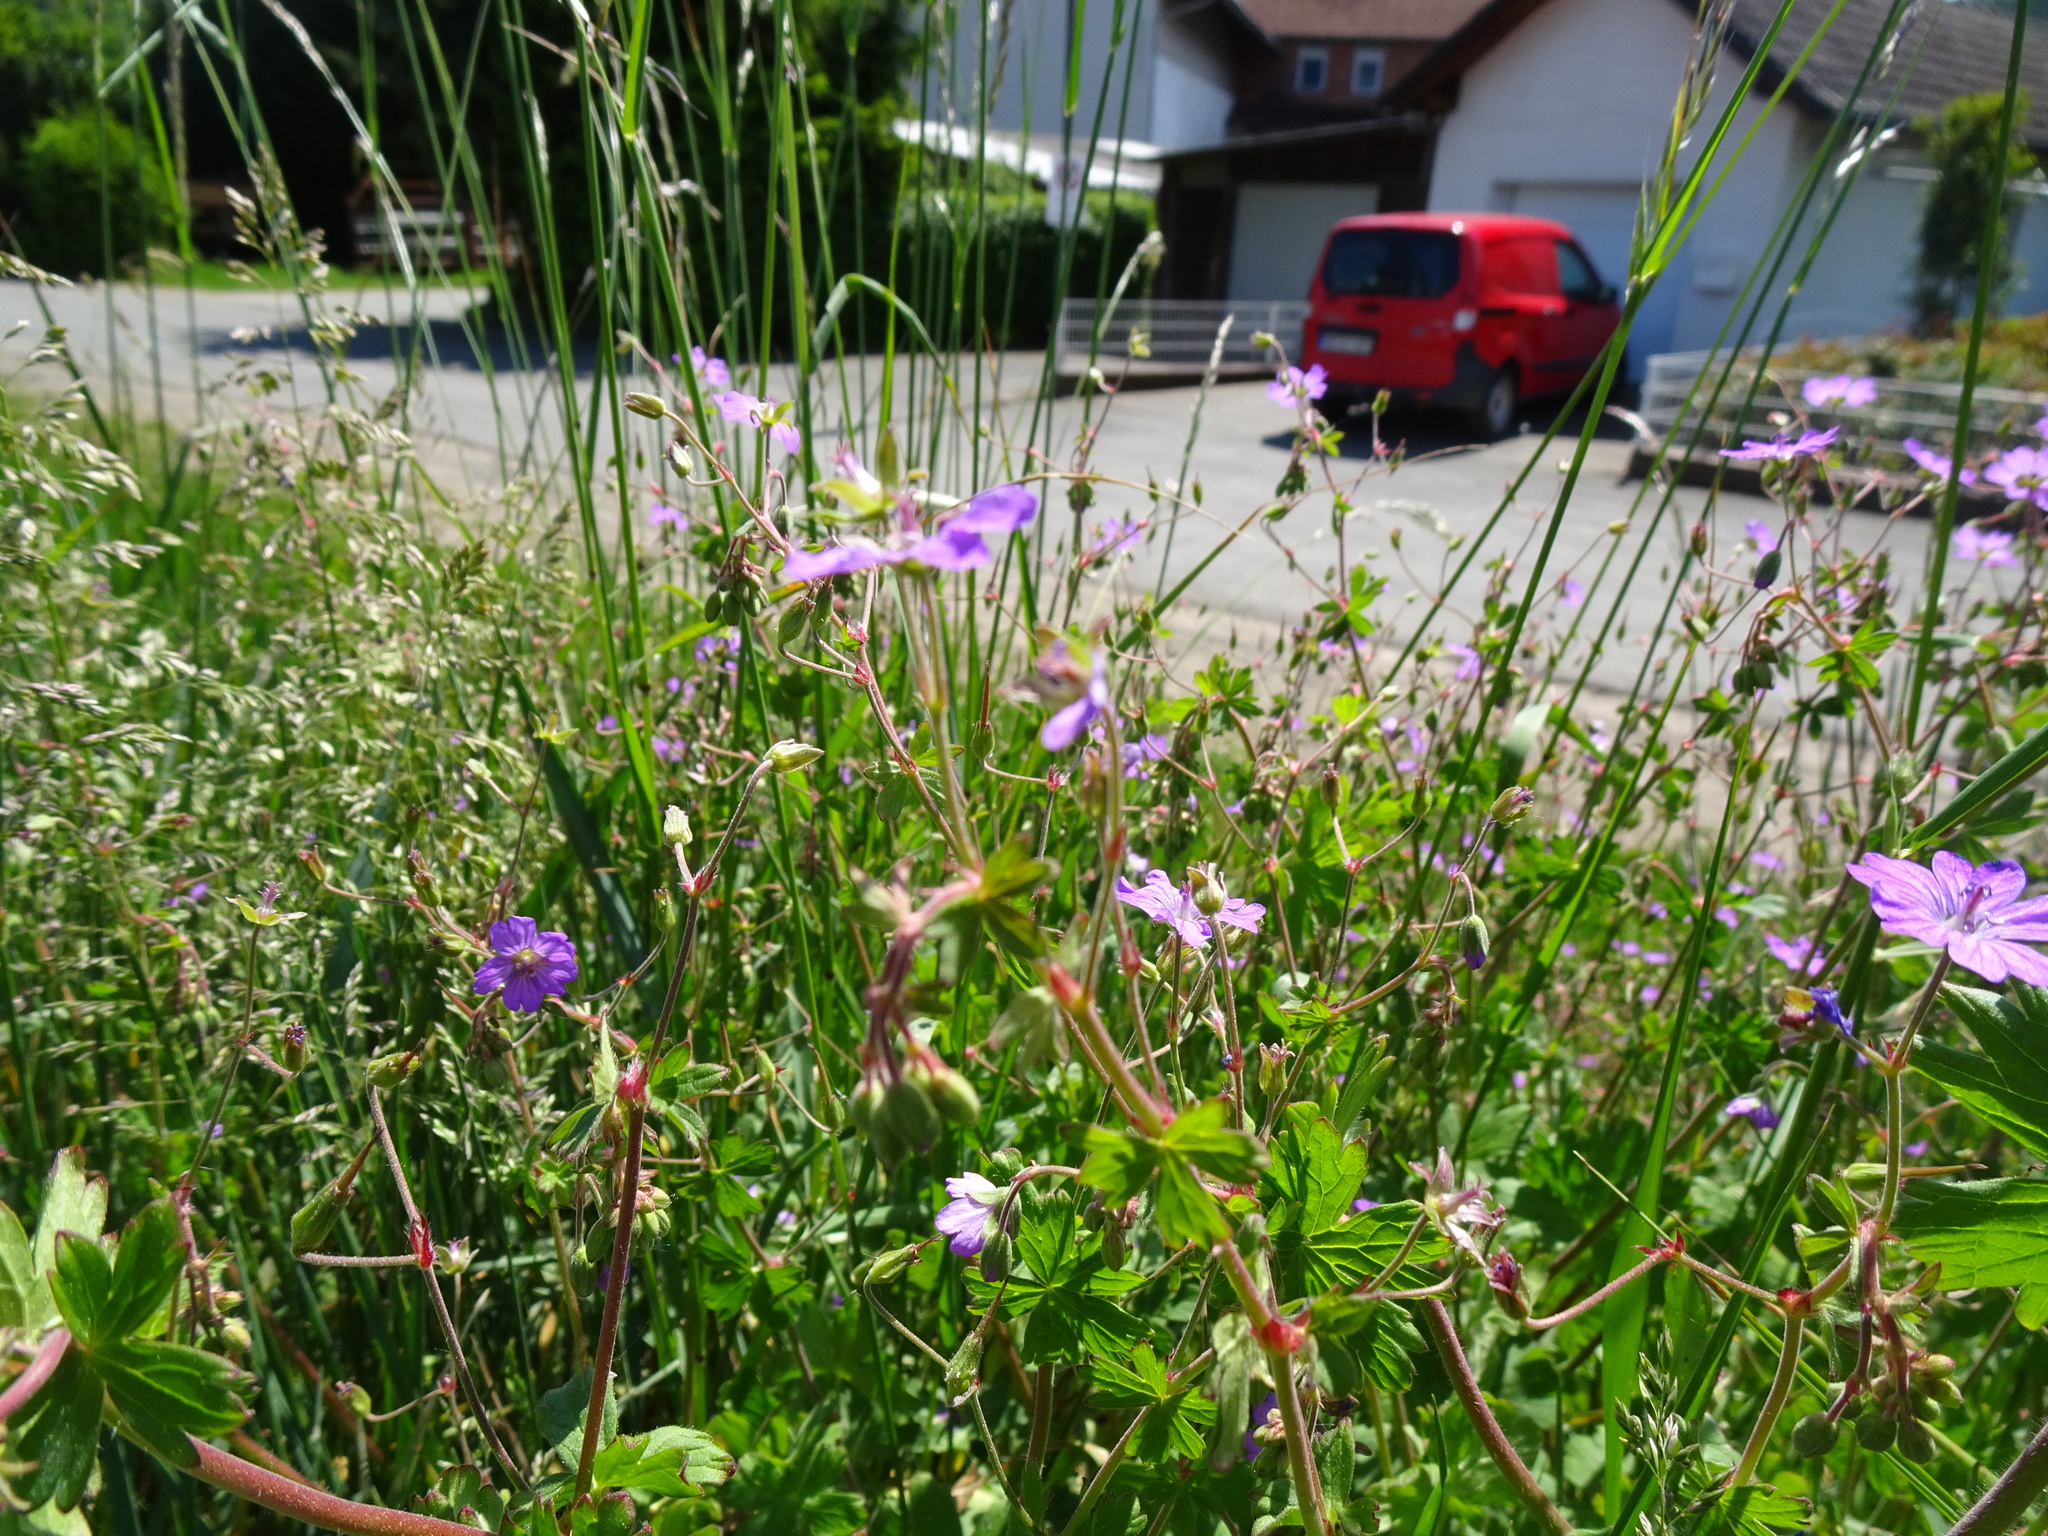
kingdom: Plantae
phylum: Tracheophyta
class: Magnoliopsida
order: Geraniales
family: Geraniaceae
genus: Geranium
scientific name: Geranium pyrenaicum
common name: Hedgerow crane's-bill
